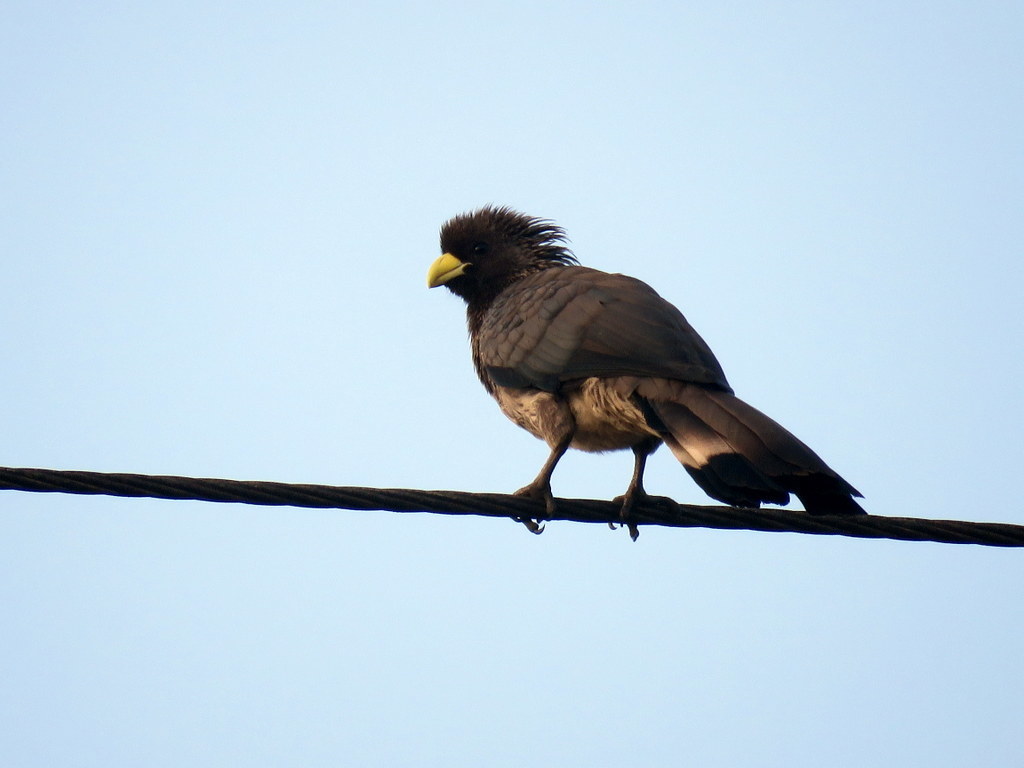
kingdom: Animalia
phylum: Chordata
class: Aves
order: Musophagiformes
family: Musophagidae
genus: Crinifer
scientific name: Crinifer zonurus
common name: Eastern plantain-eater
